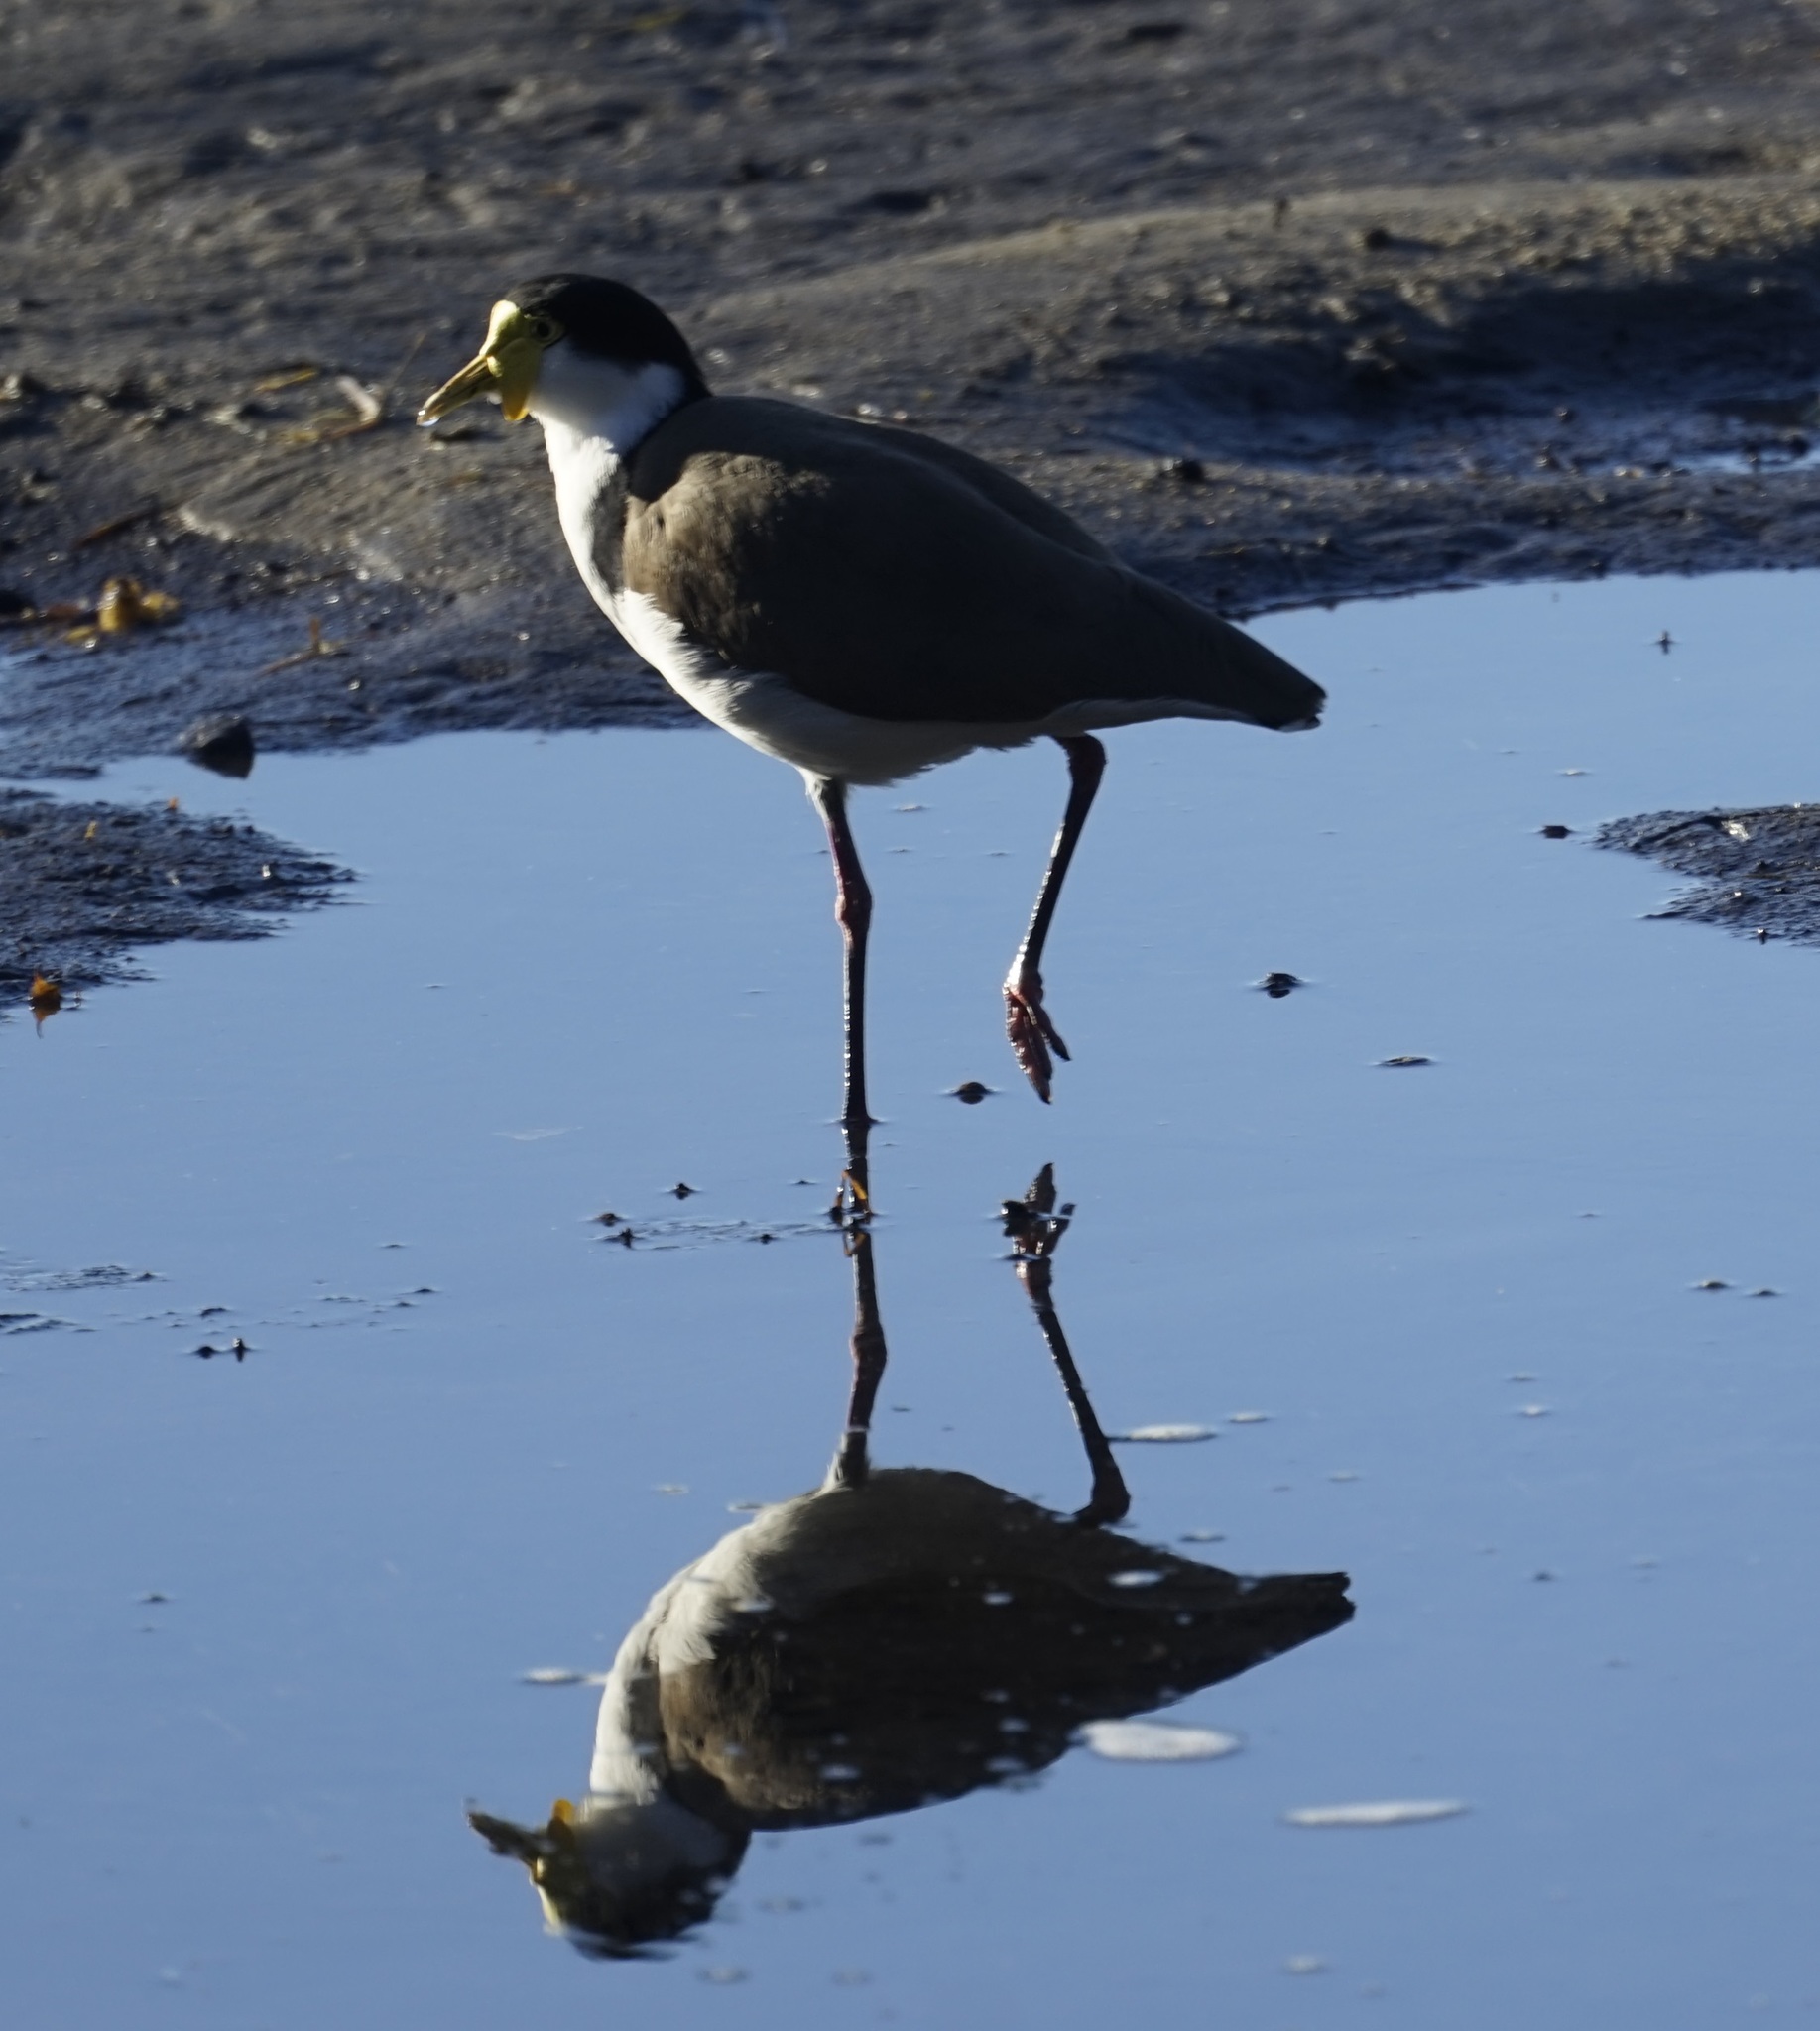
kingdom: Animalia
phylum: Chordata
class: Aves
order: Charadriiformes
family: Charadriidae
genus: Vanellus
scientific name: Vanellus miles
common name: Masked lapwing
